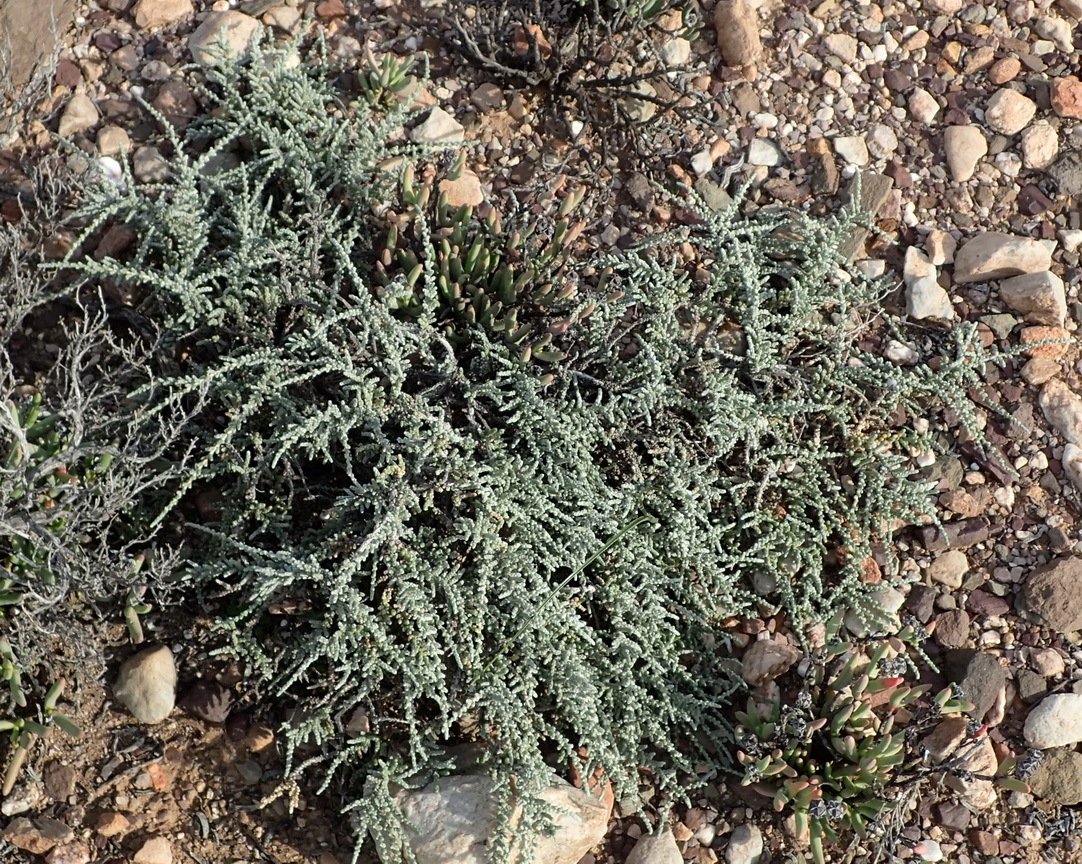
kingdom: Plantae
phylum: Tracheophyta
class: Magnoliopsida
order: Caryophyllales
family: Amaranthaceae
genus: Caroxylon
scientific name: Caroxylon tuberculatum
